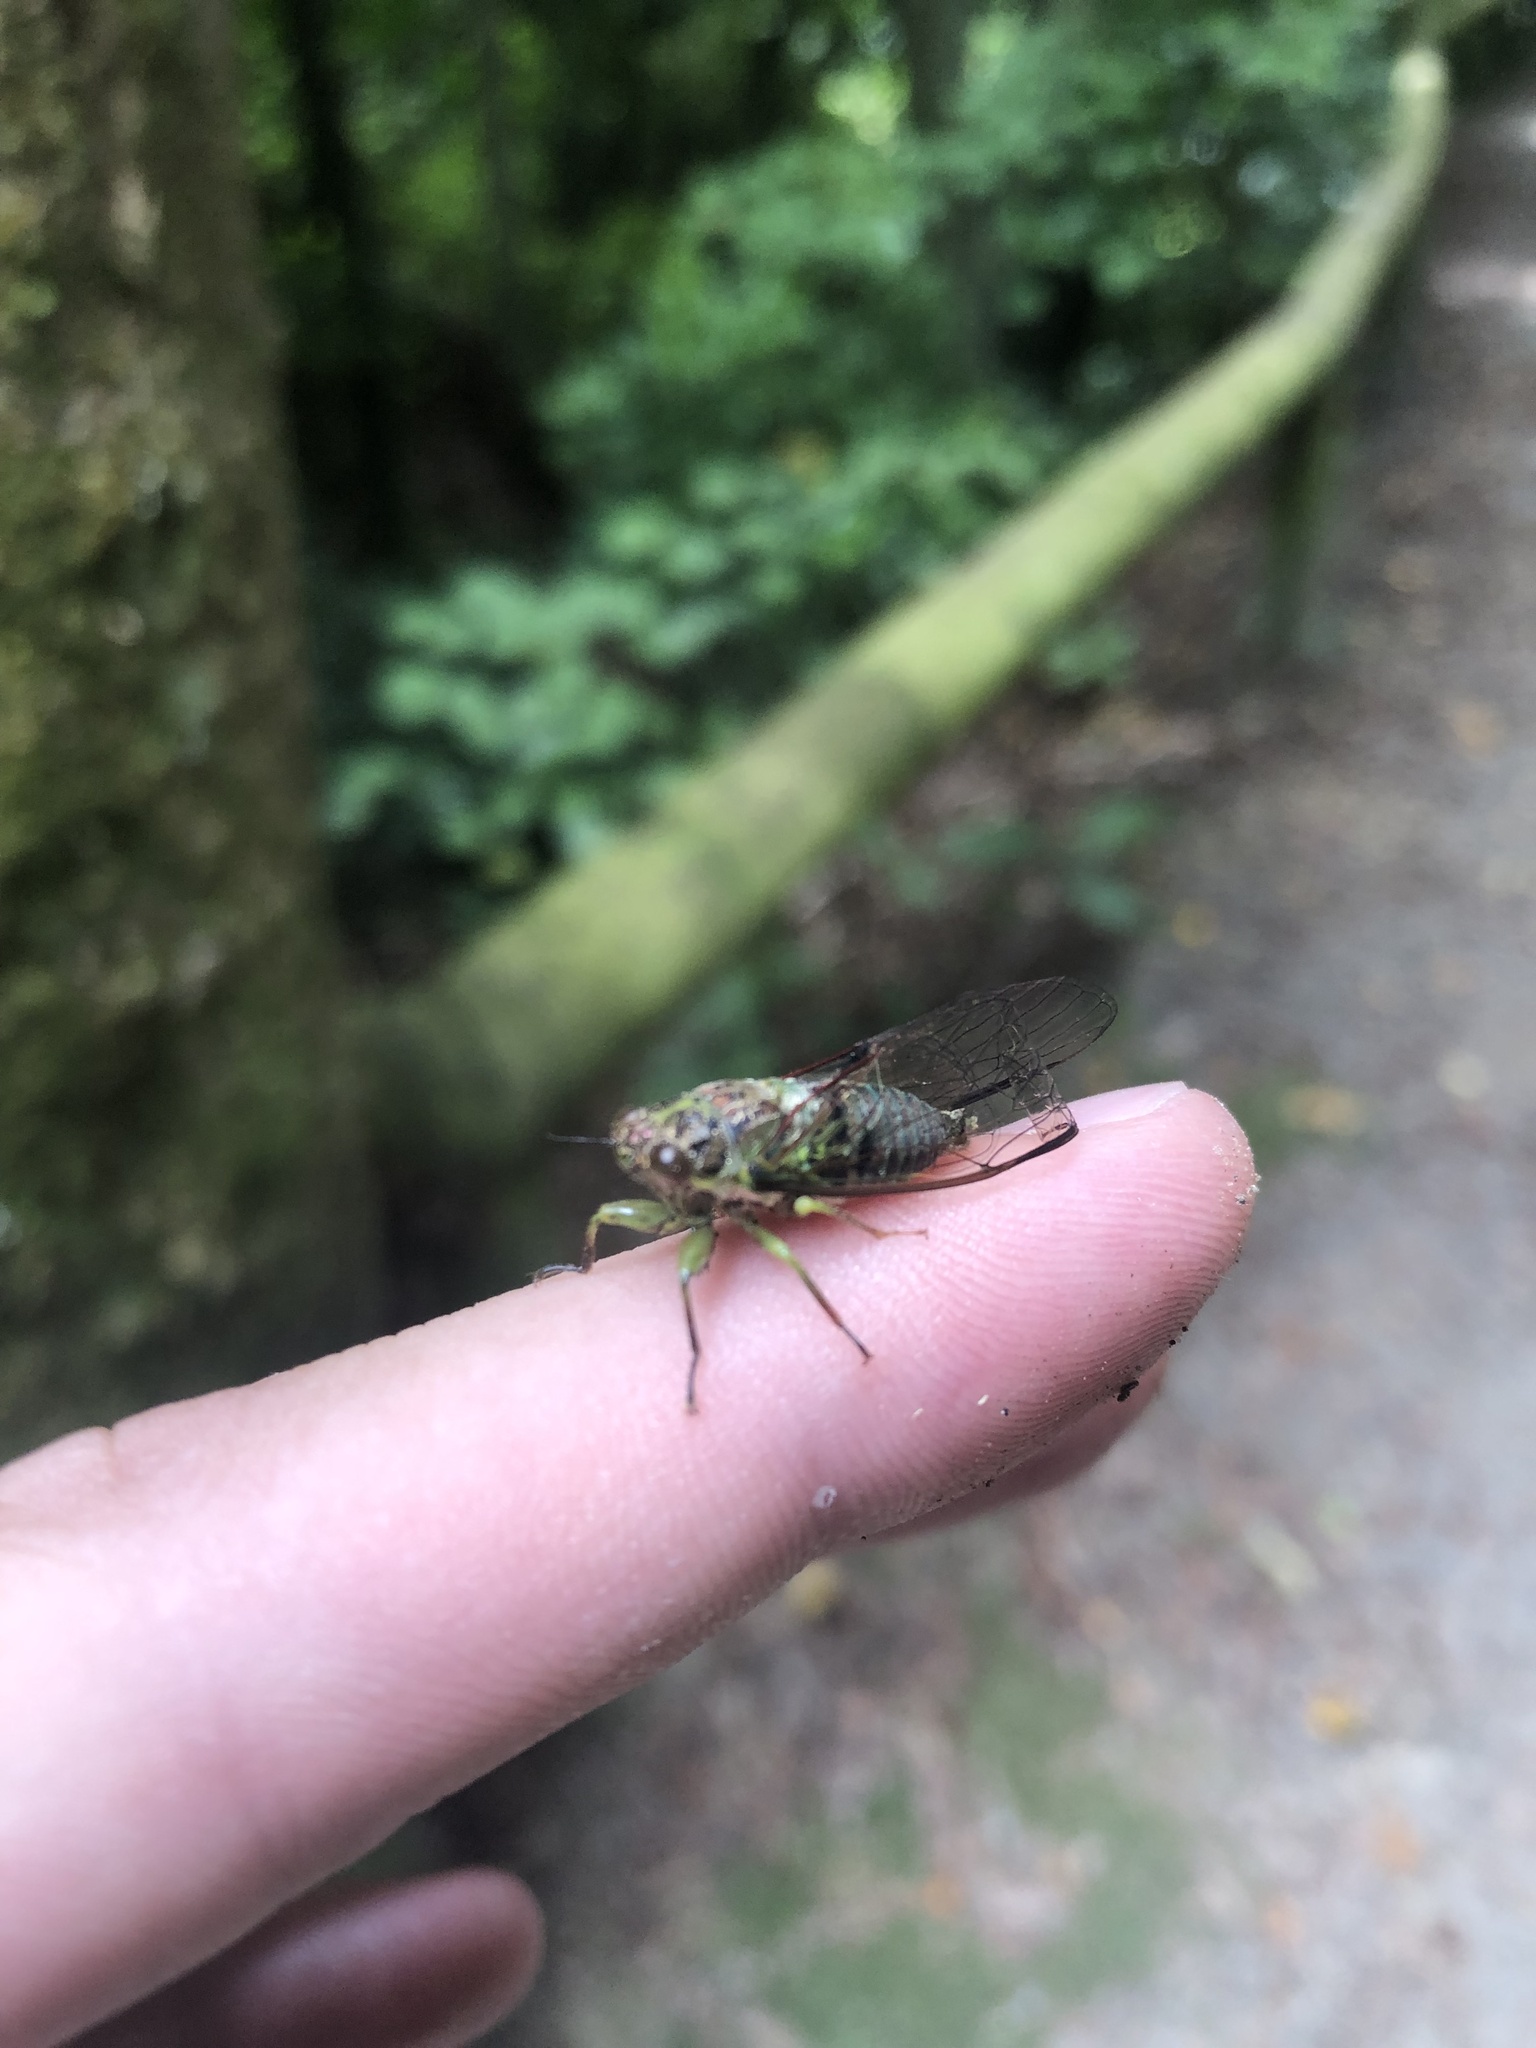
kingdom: Animalia
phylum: Arthropoda
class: Insecta
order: Hemiptera
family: Cicadidae
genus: Kikihia
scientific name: Kikihia scutellaris
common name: Lesser bronze cicada
